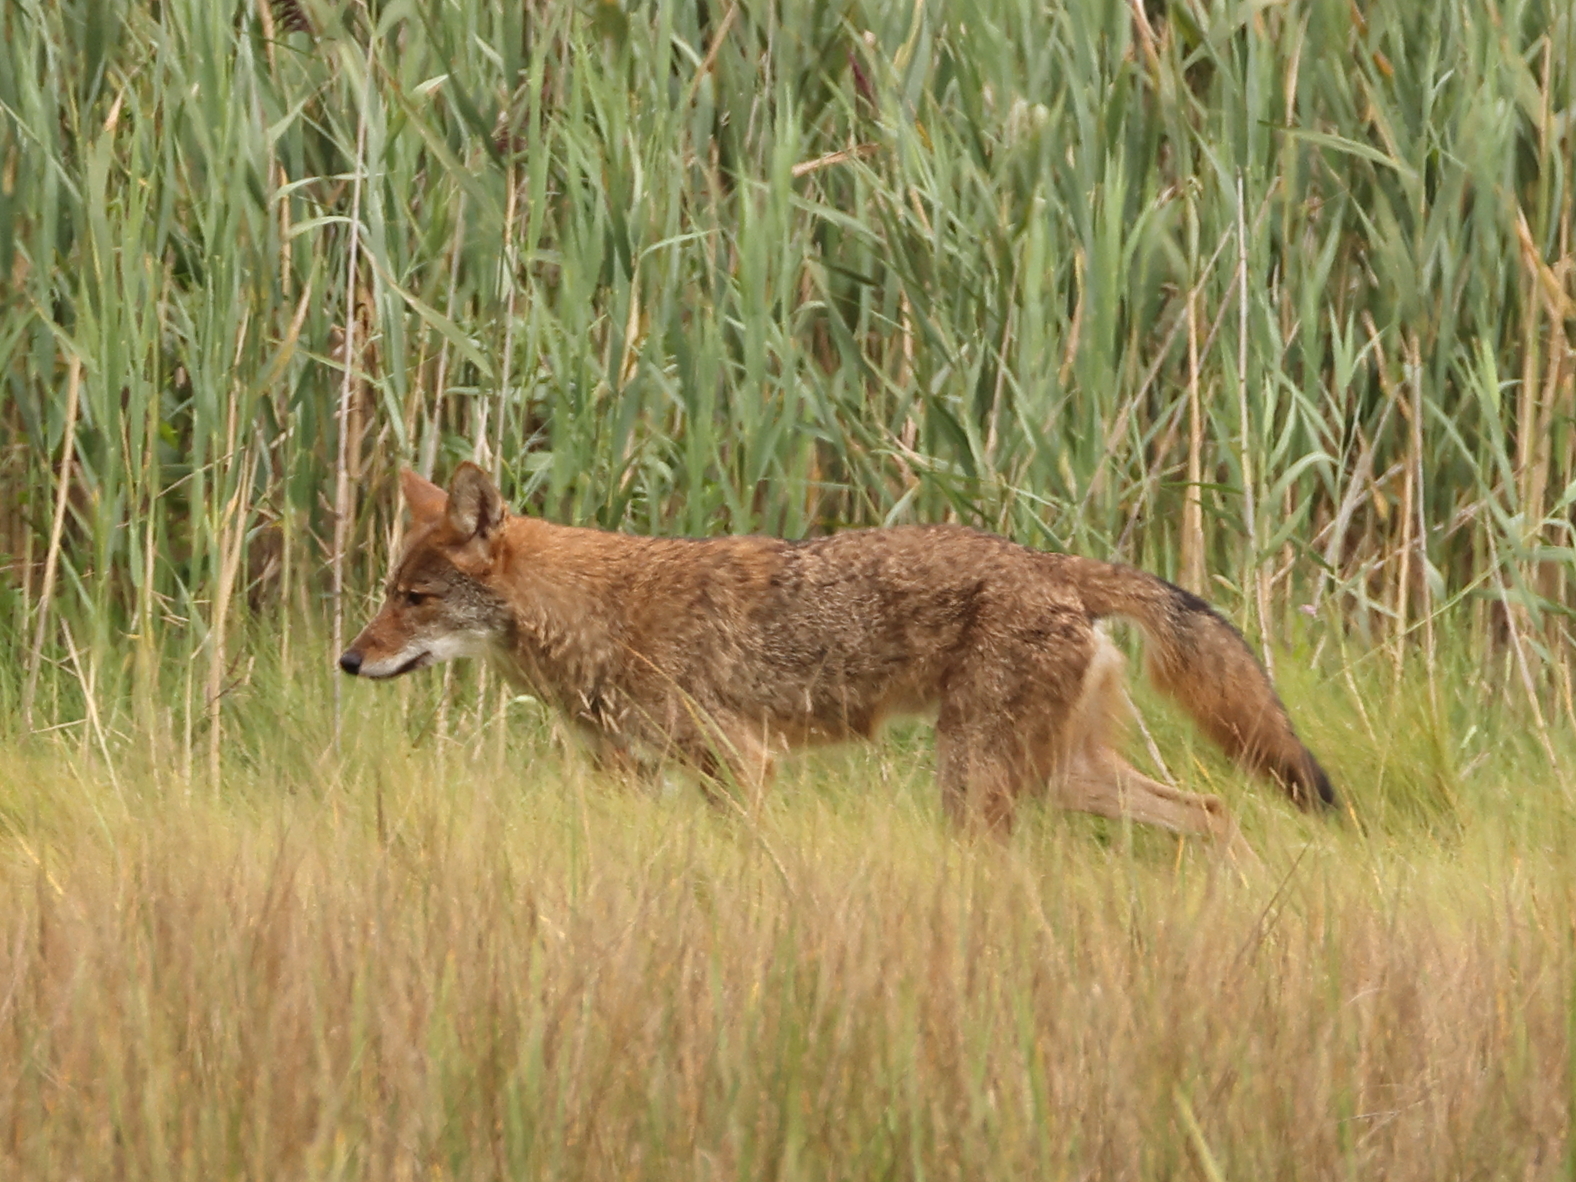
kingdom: Animalia
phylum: Chordata
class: Mammalia
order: Carnivora
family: Canidae
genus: Canis
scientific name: Canis latrans
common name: Coyote
